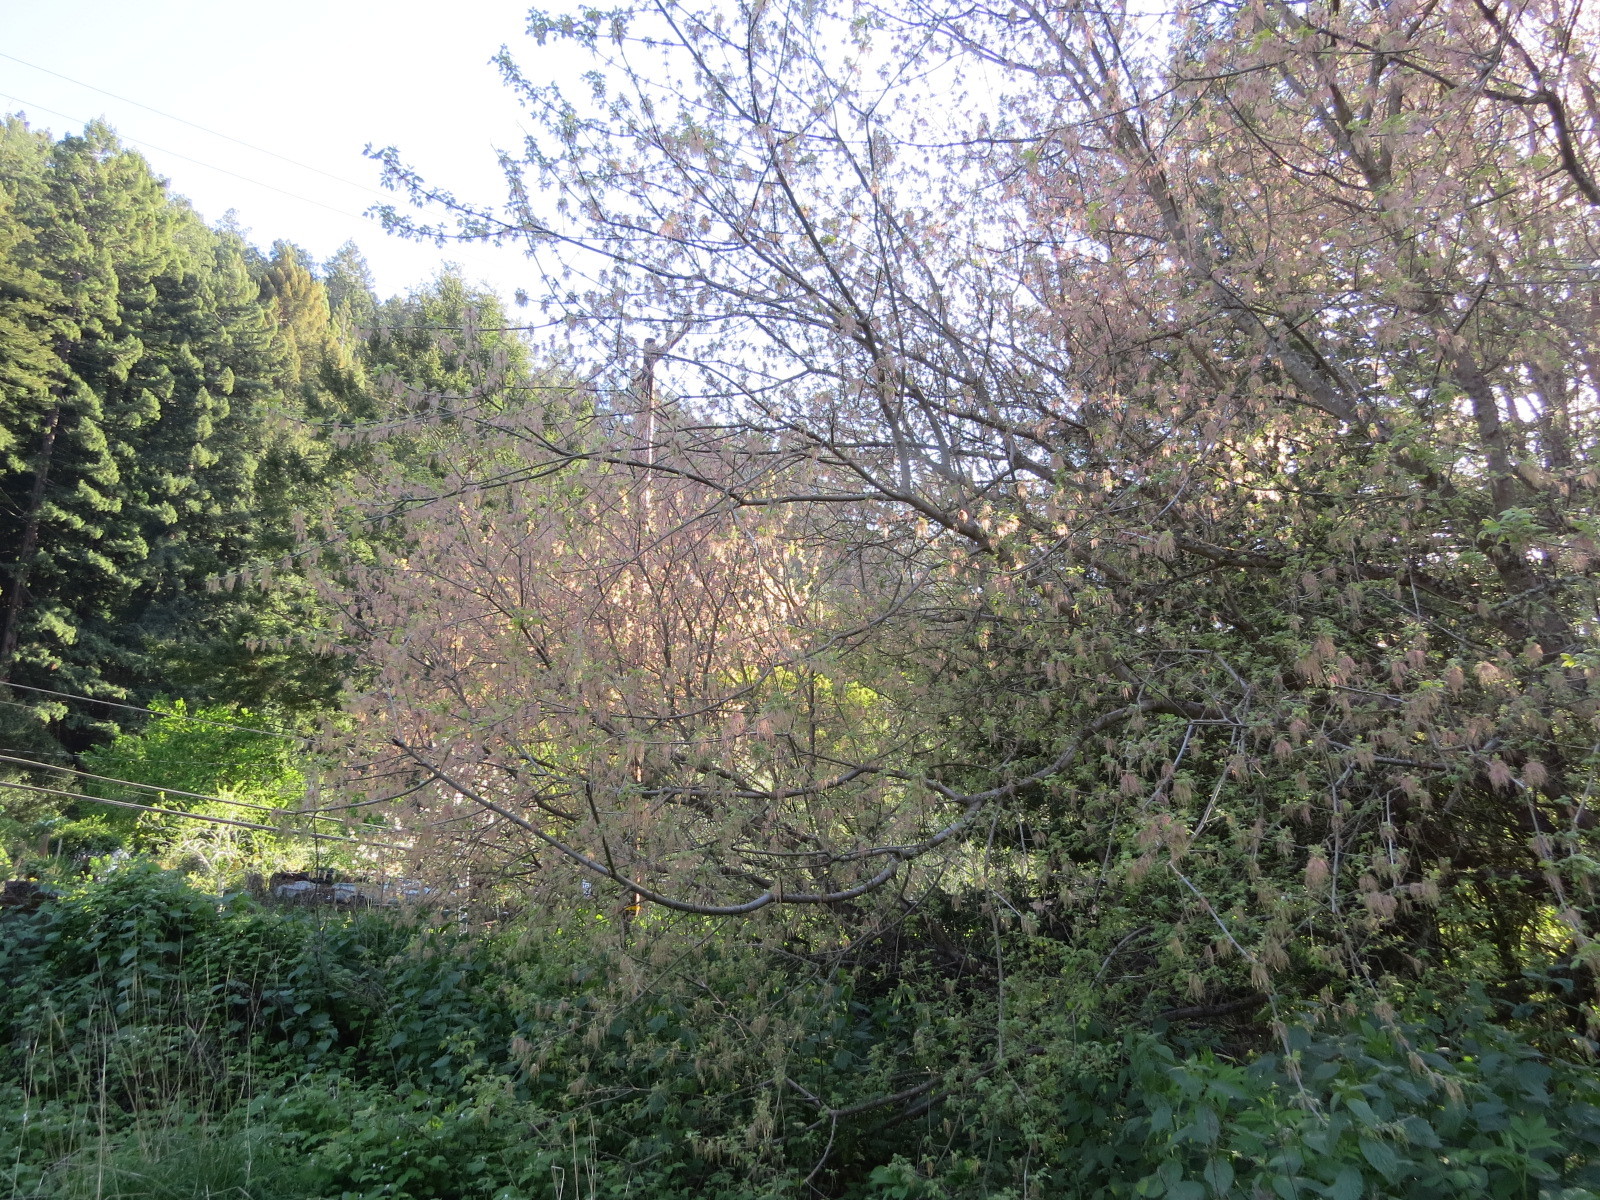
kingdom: Plantae
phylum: Tracheophyta
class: Magnoliopsida
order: Sapindales
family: Sapindaceae
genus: Acer
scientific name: Acer negundo
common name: Ashleaf maple
